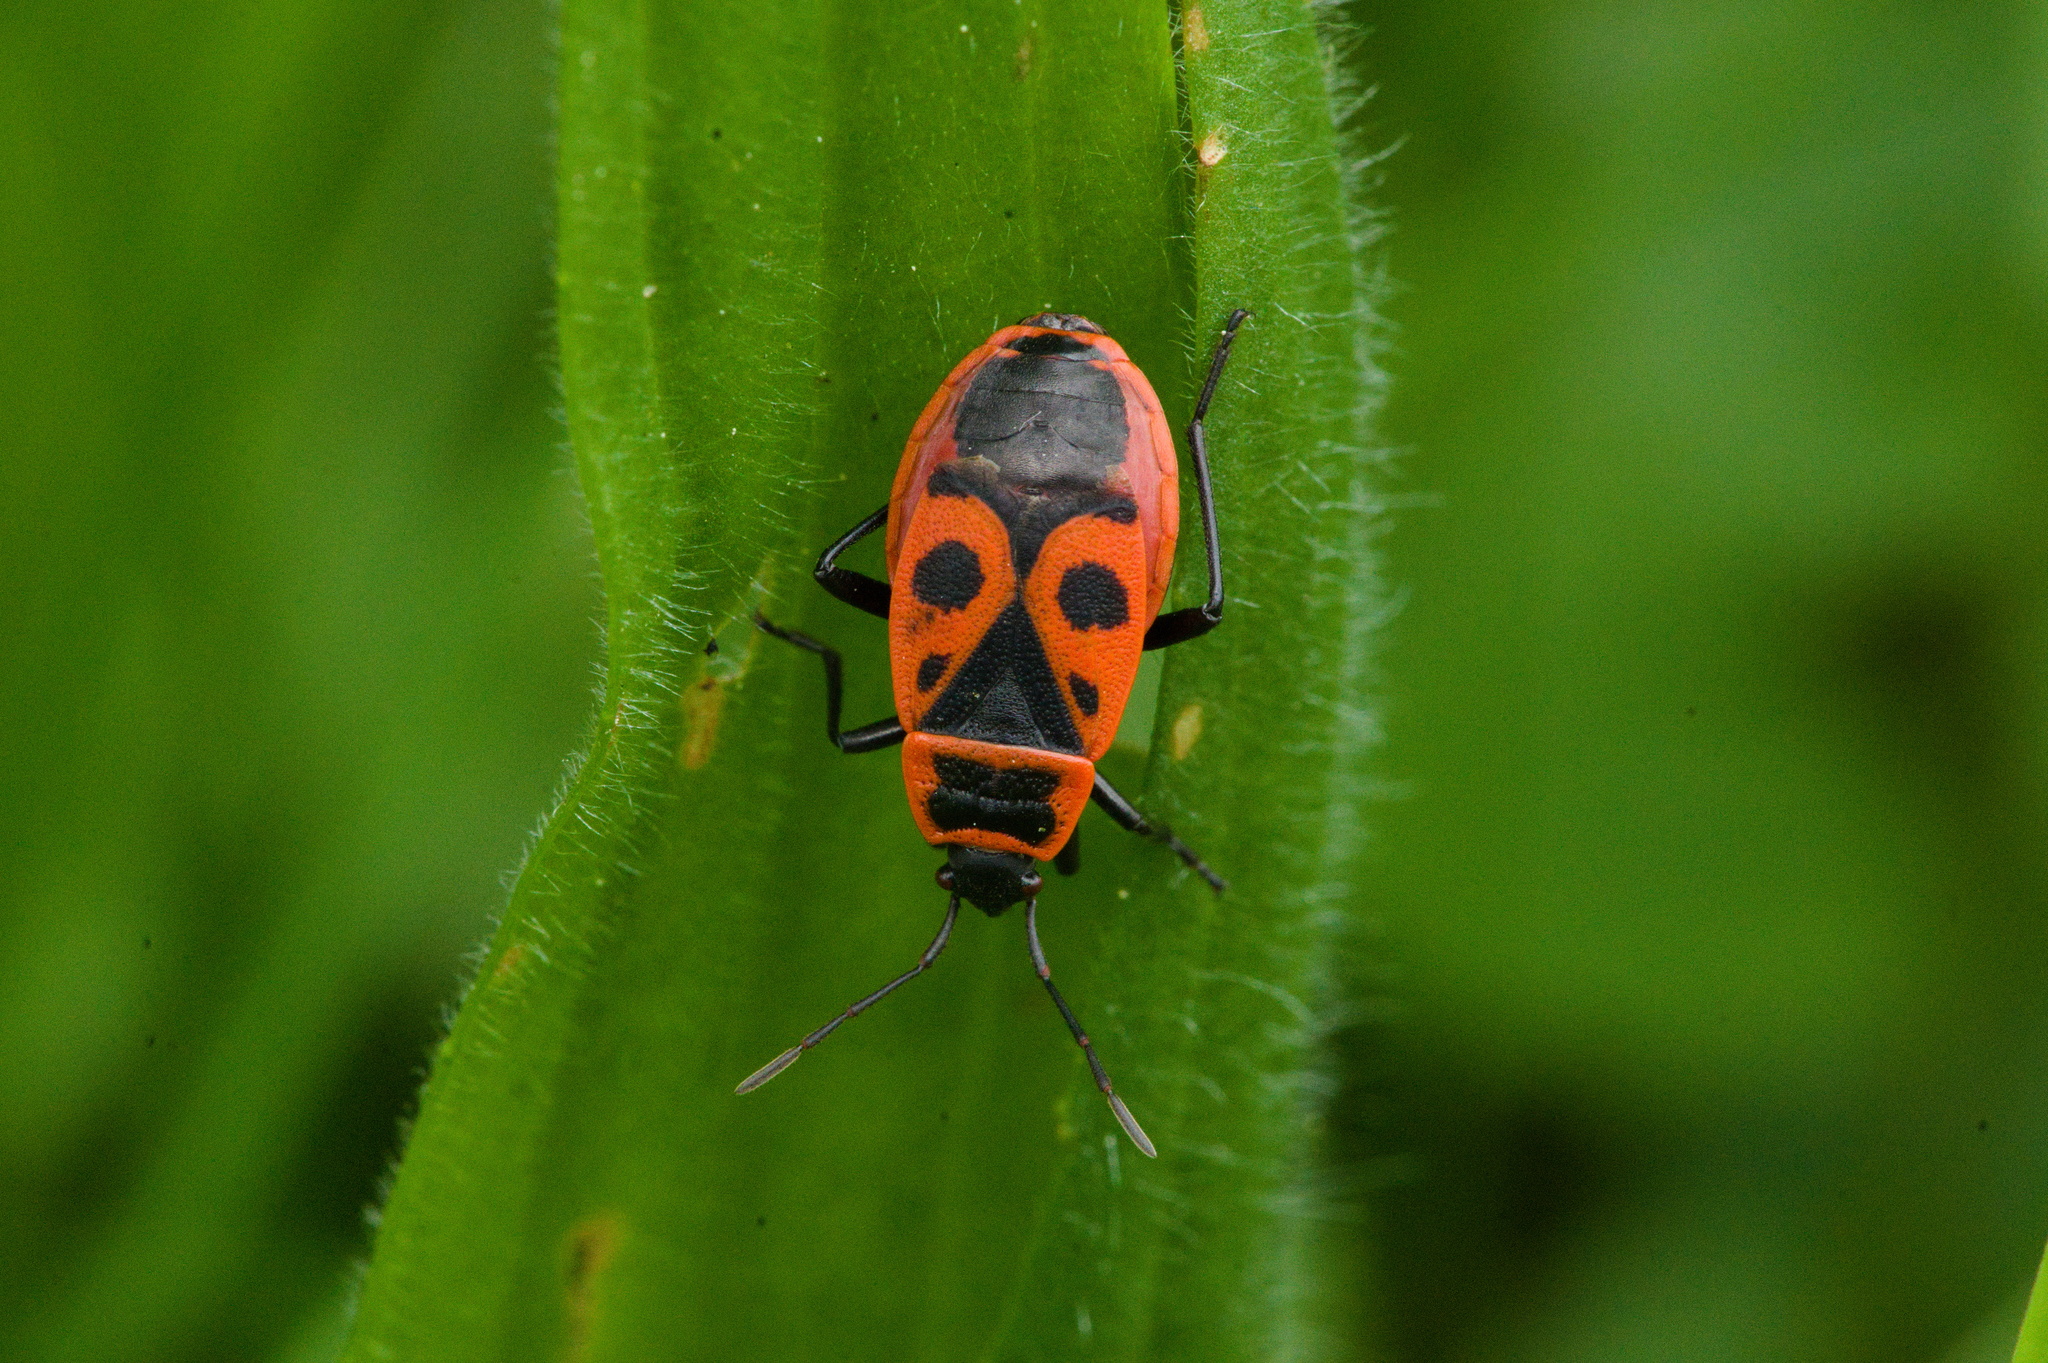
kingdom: Animalia
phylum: Arthropoda
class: Insecta
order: Hemiptera
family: Pyrrhocoridae
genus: Pyrrhocoris
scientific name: Pyrrhocoris apterus
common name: Firebug
